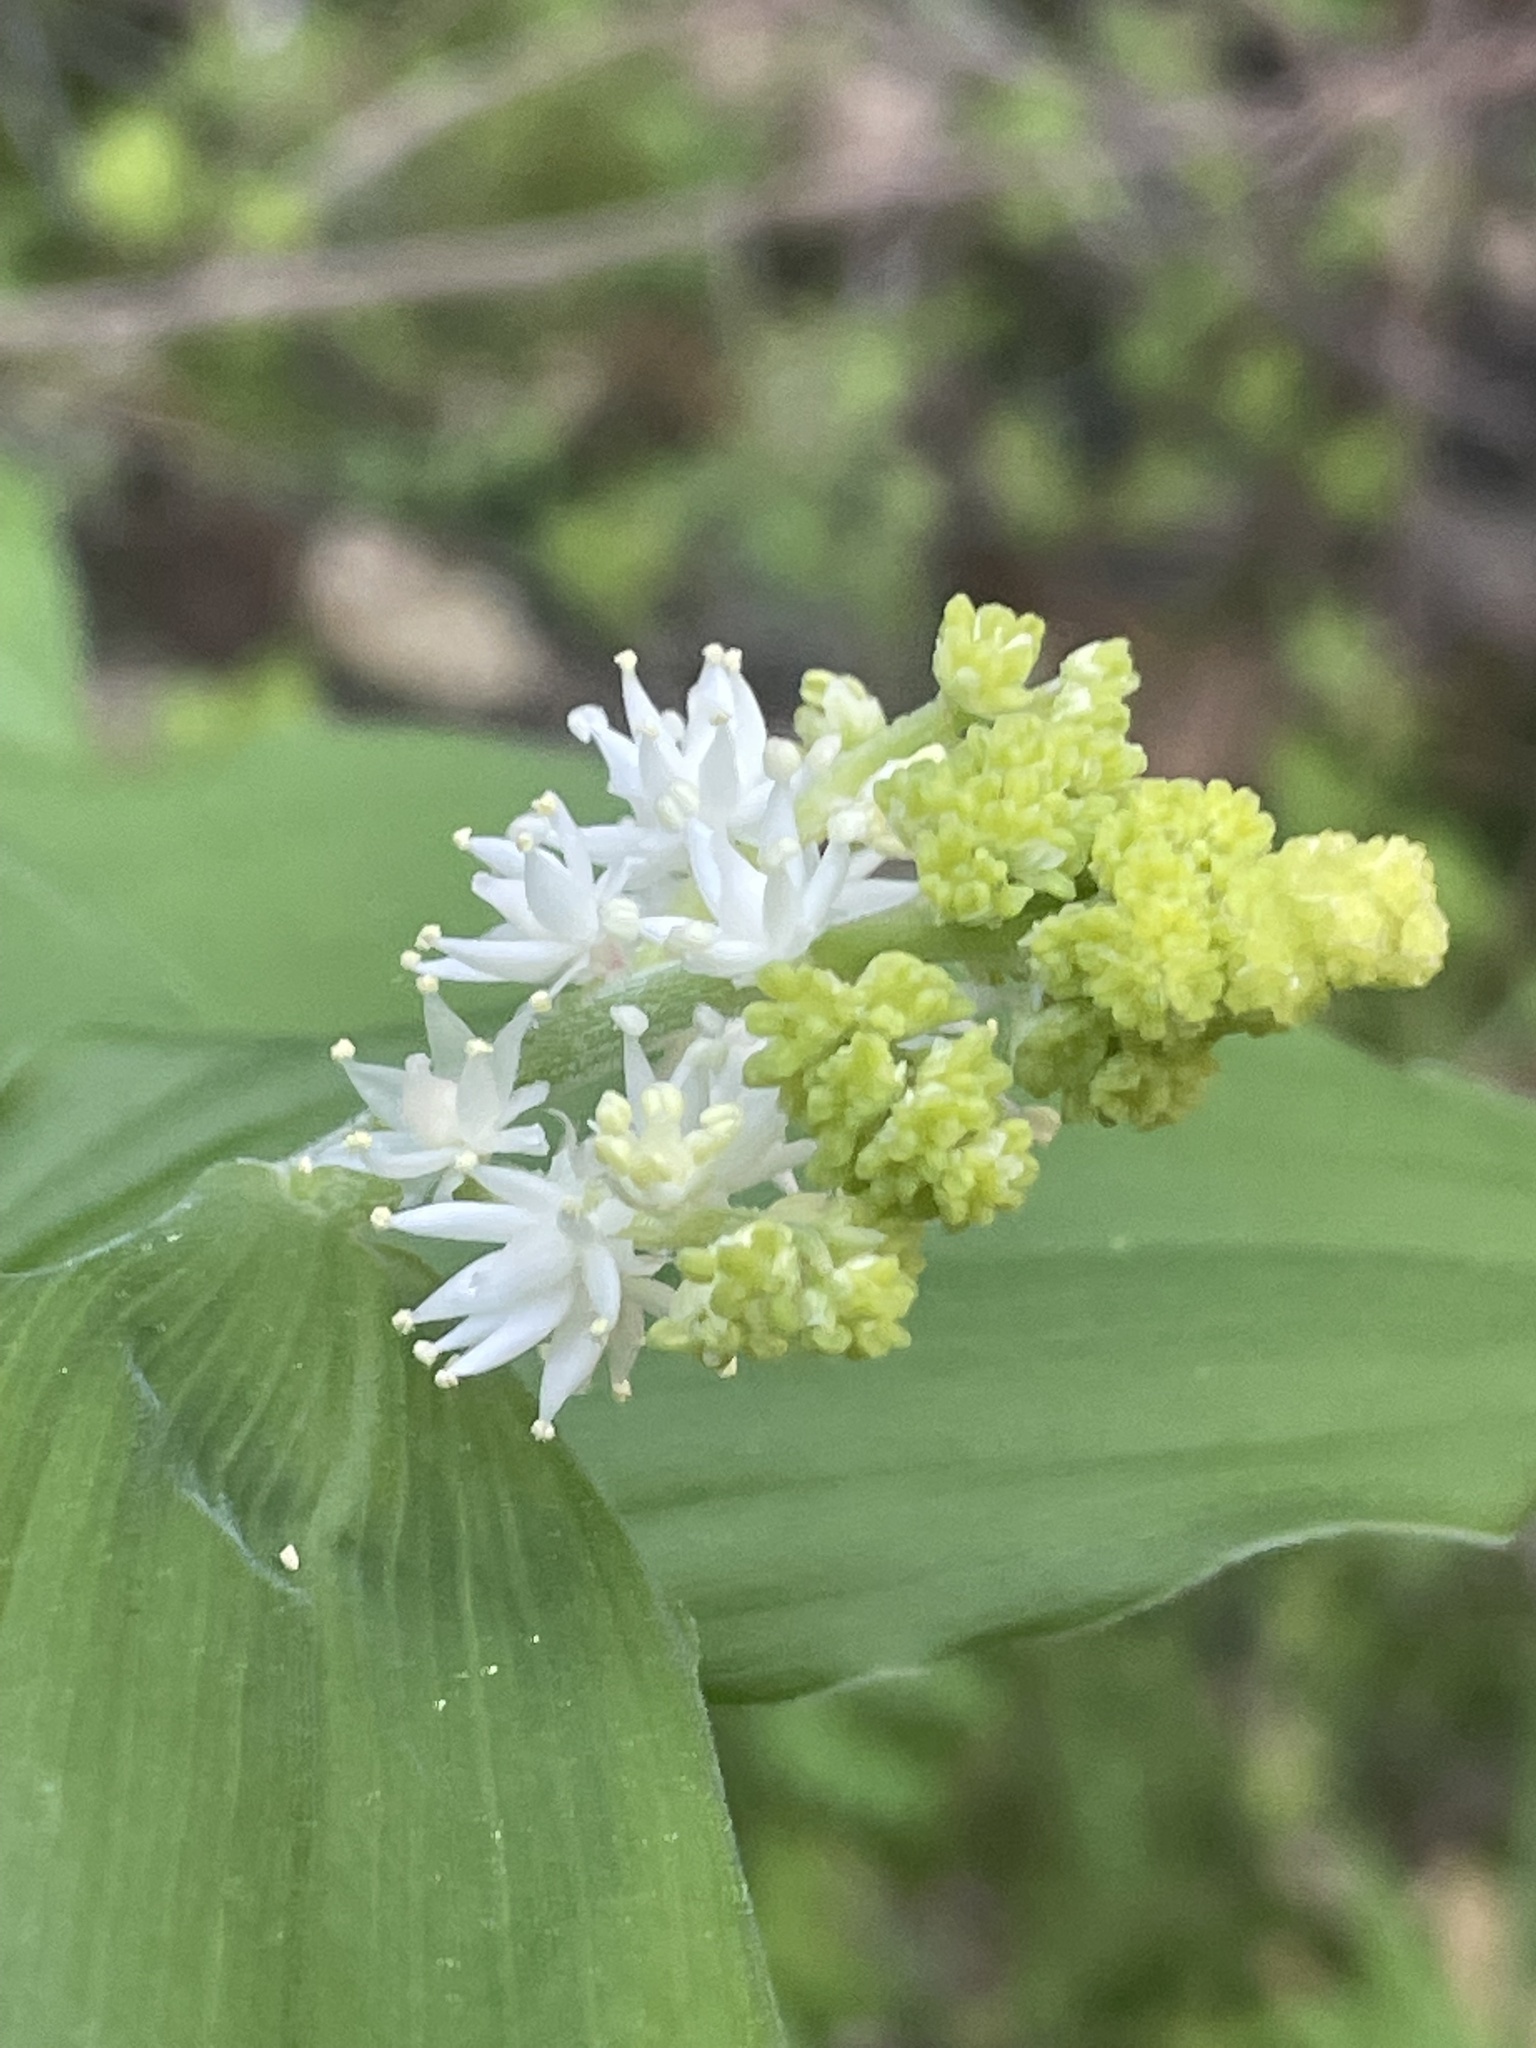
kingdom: Plantae
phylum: Tracheophyta
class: Liliopsida
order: Asparagales
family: Asparagaceae
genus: Maianthemum
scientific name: Maianthemum racemosum
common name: False spikenard
